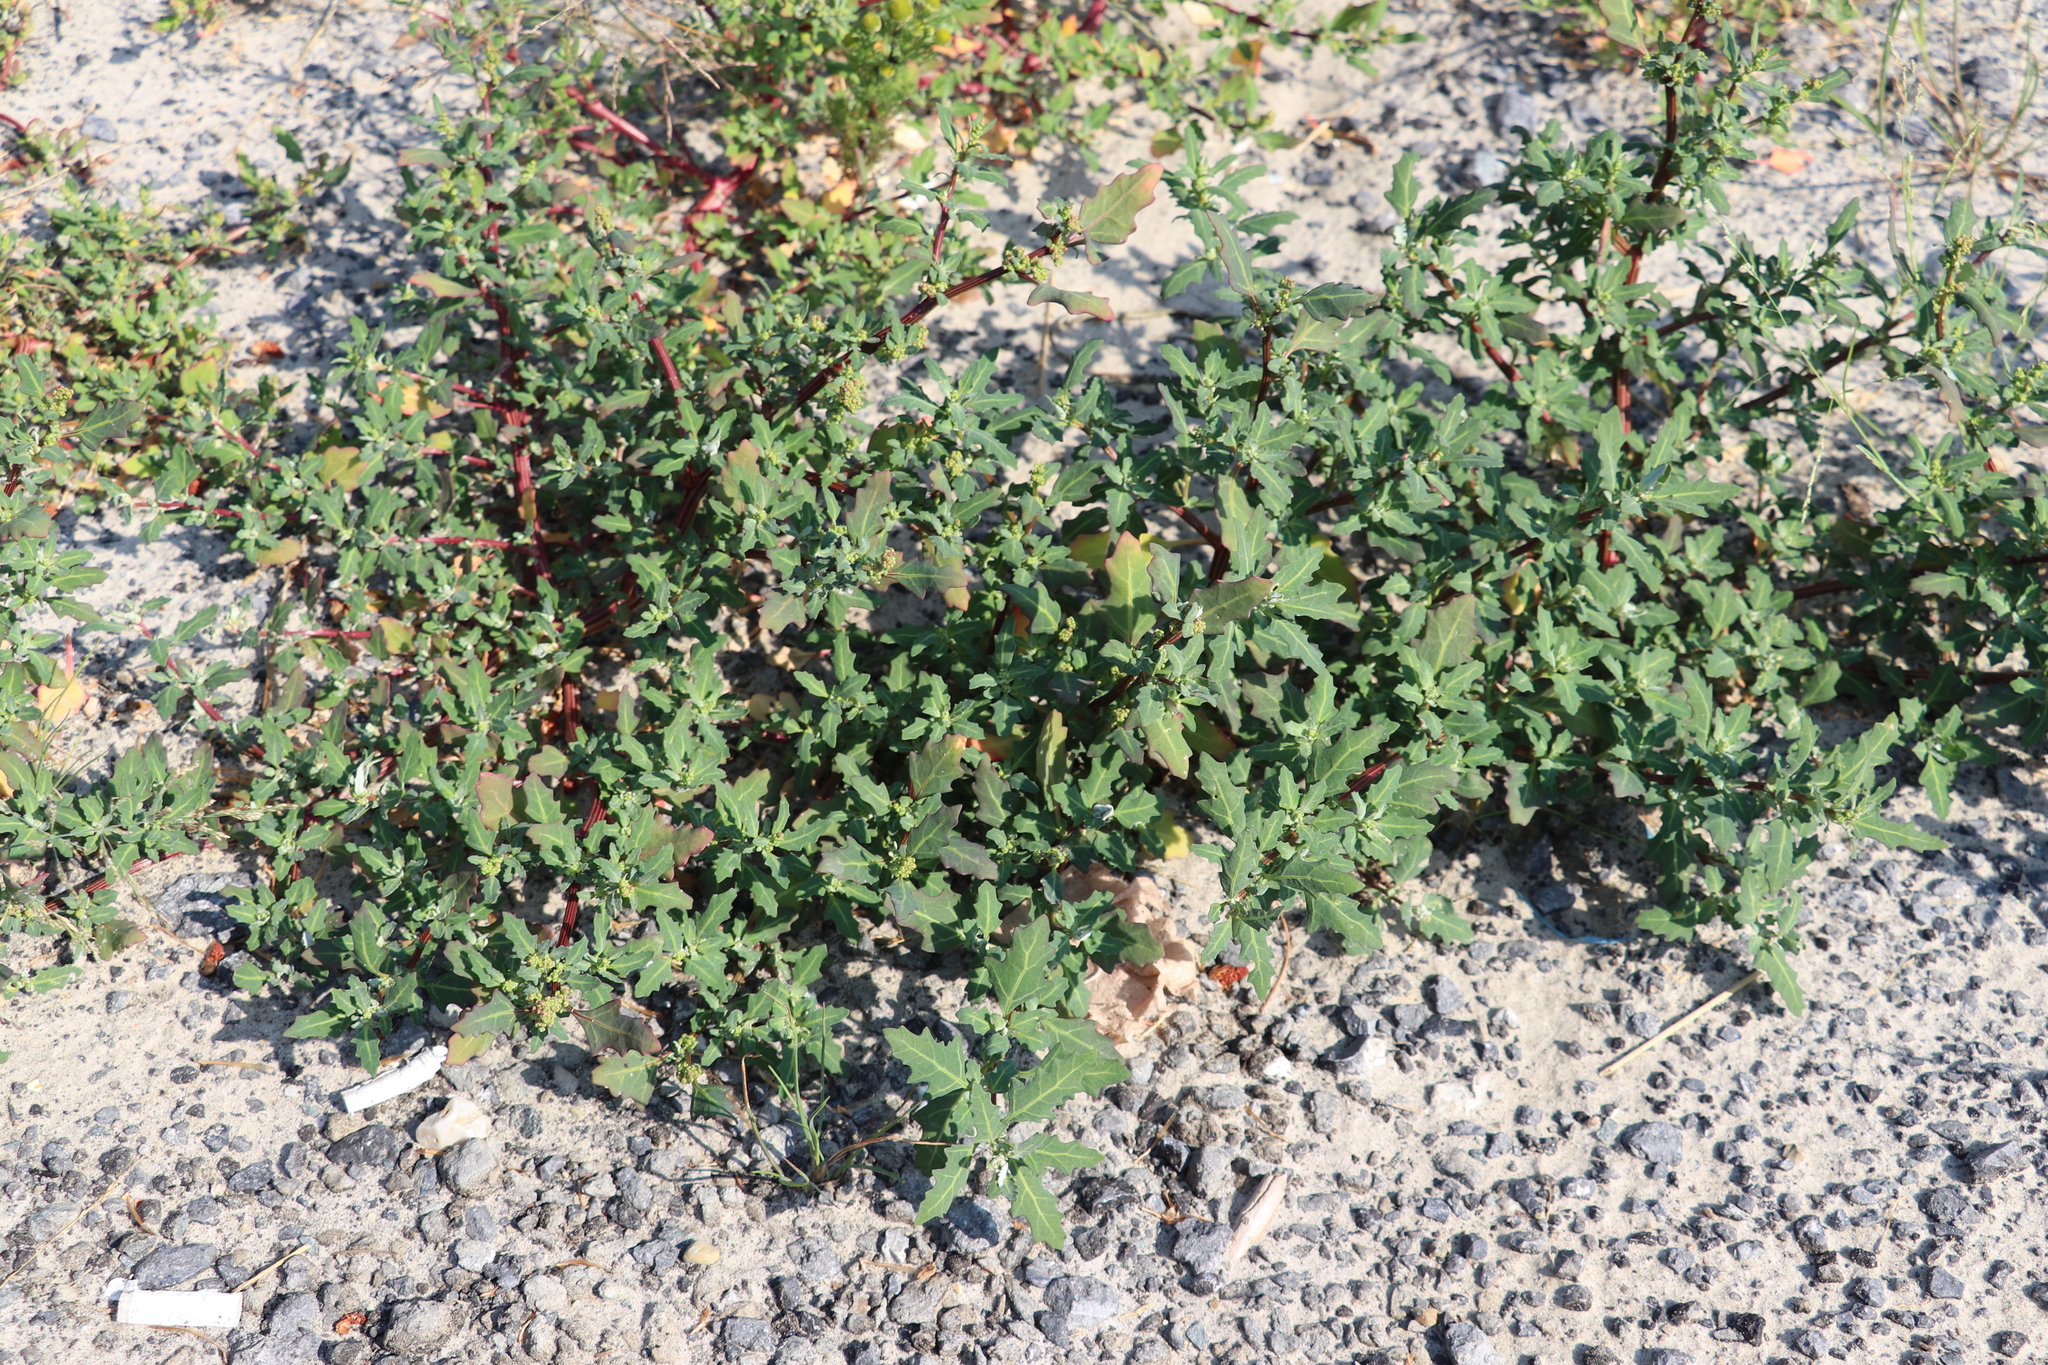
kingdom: Plantae
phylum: Tracheophyta
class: Magnoliopsida
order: Caryophyllales
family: Amaranthaceae
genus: Oxybasis
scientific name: Oxybasis glauca
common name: Glaucous goosefoot
